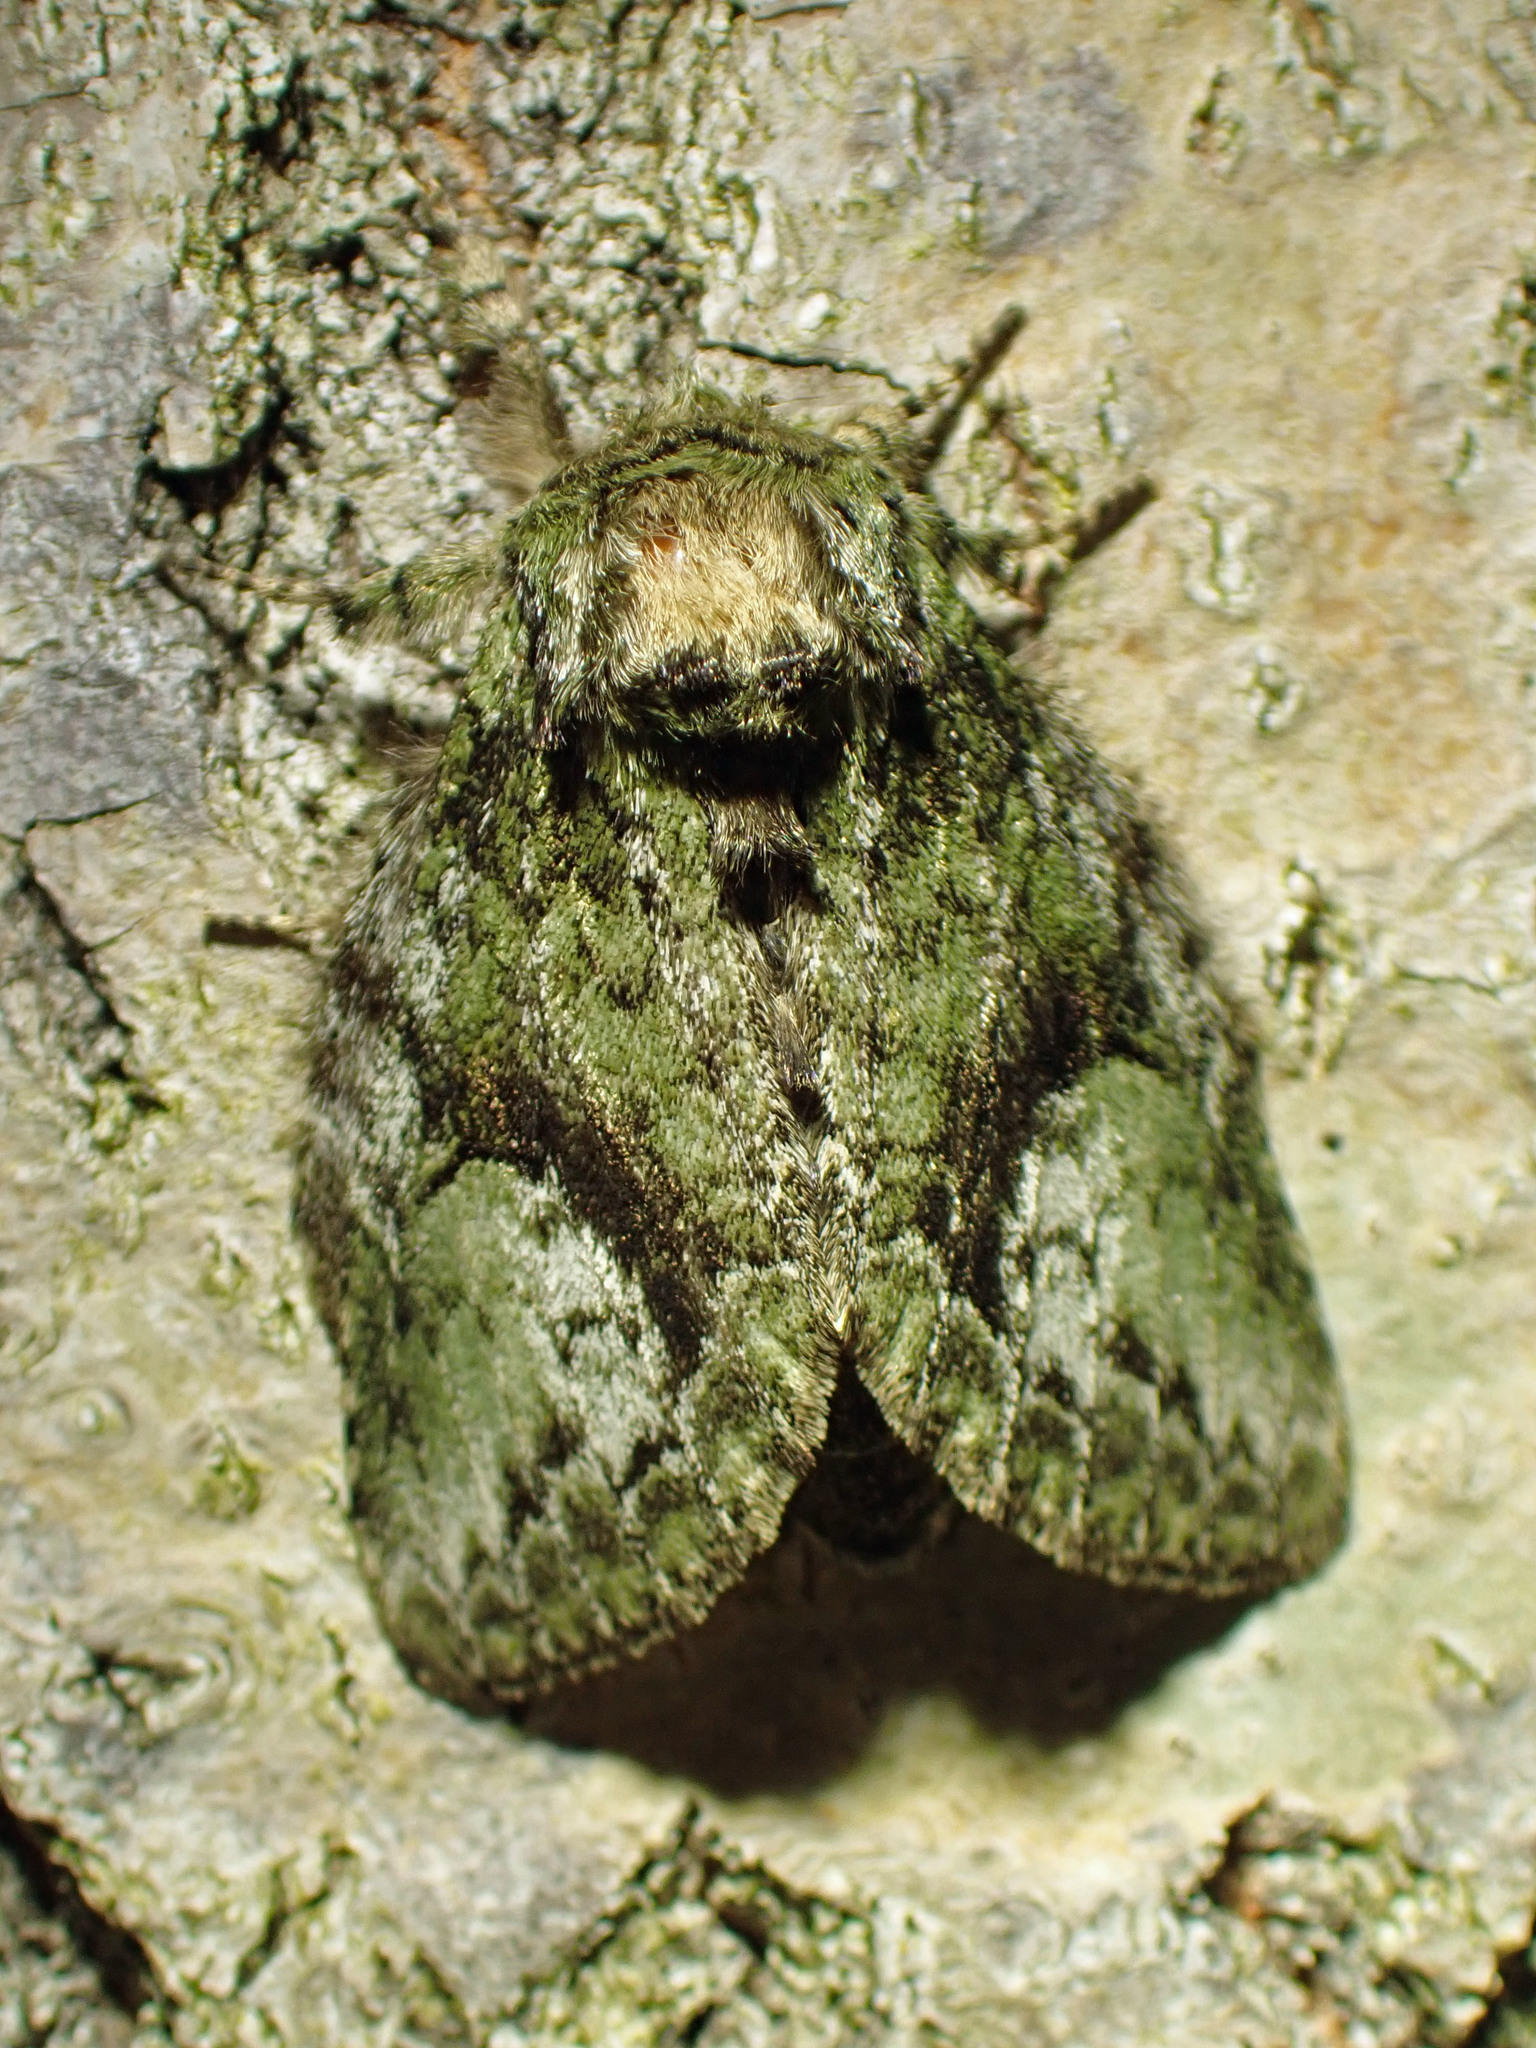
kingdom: Animalia
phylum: Arthropoda
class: Insecta
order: Lepidoptera
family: Notodontidae
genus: Heterocampa
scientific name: Heterocampa
